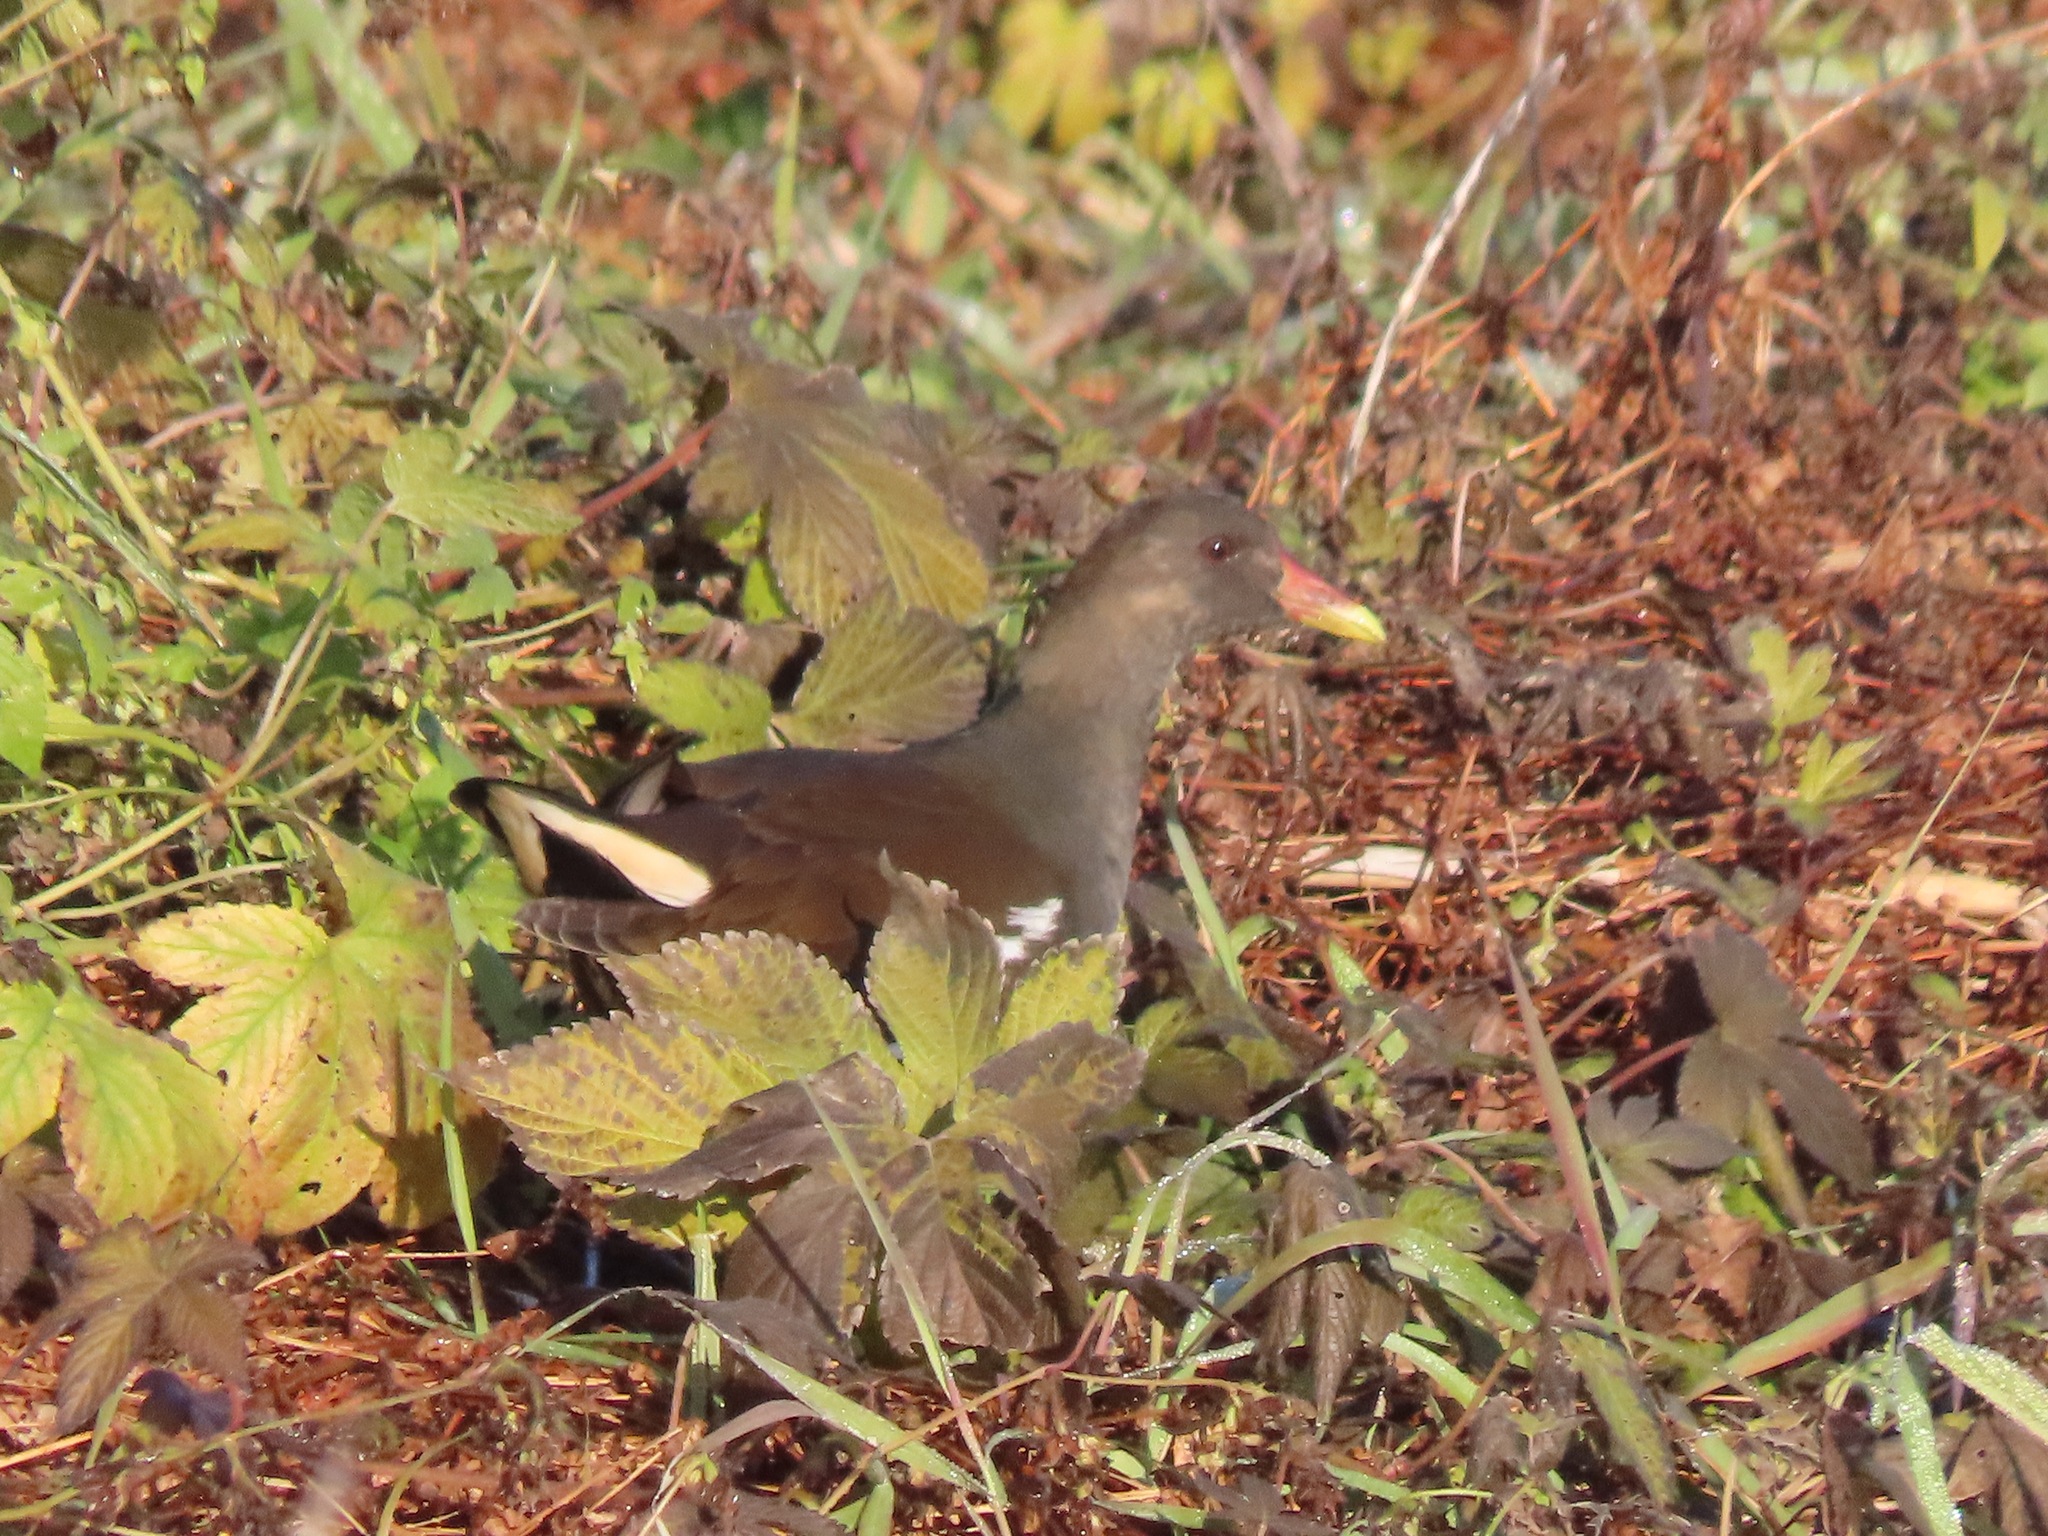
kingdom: Animalia
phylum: Chordata
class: Aves
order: Gruiformes
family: Rallidae
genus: Gallinula
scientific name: Gallinula chloropus
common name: Common moorhen
